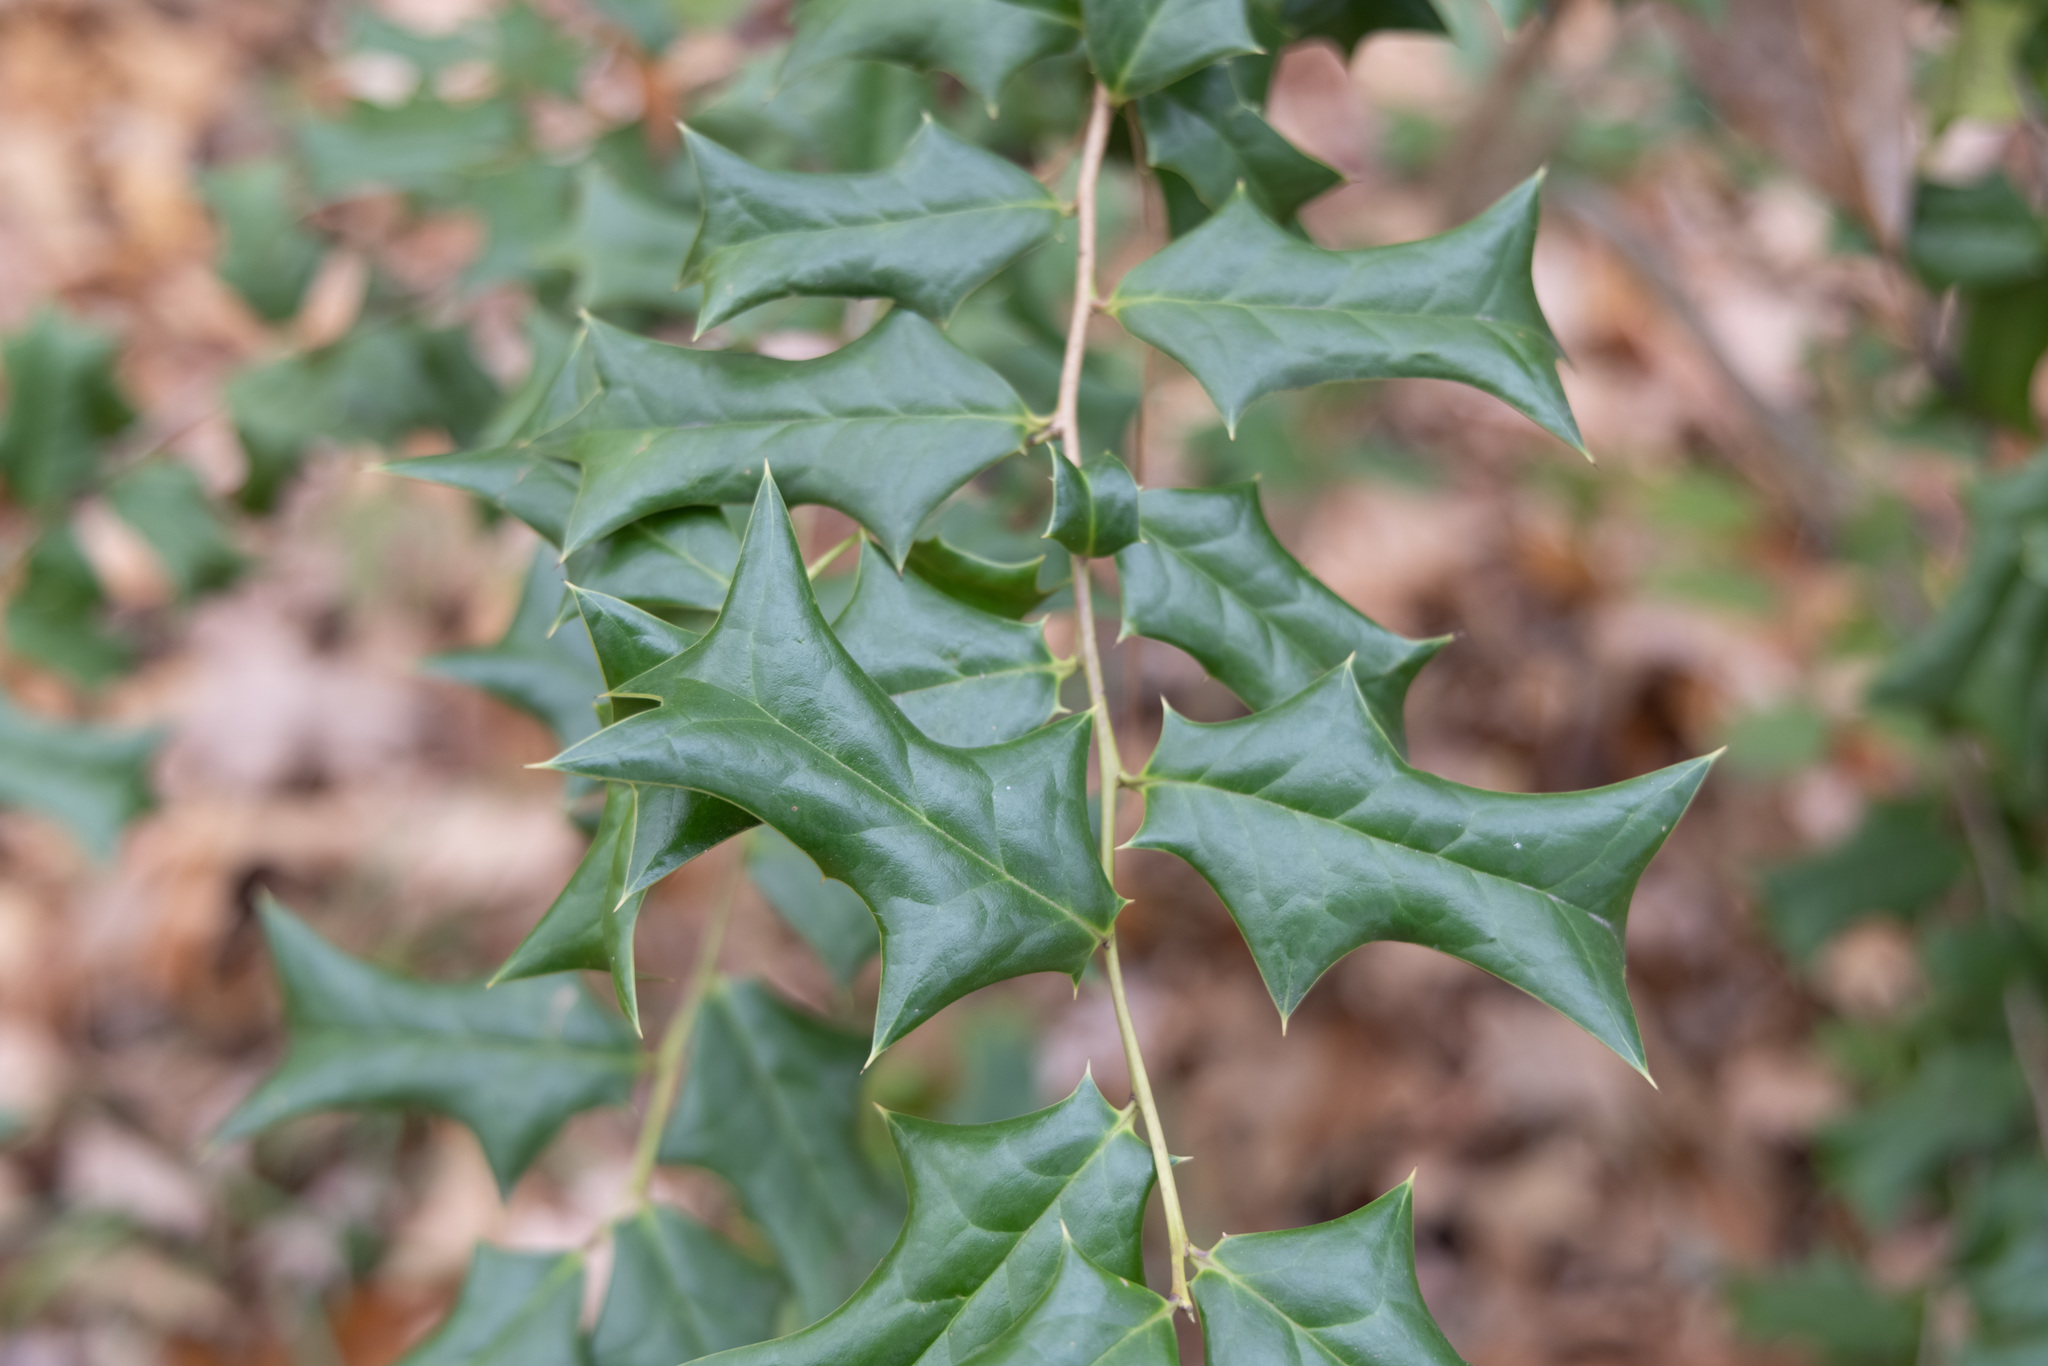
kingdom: Plantae
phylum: Tracheophyta
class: Magnoliopsida
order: Aquifoliales
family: Aquifoliaceae
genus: Ilex
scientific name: Ilex cornuta
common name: Chinese holly
